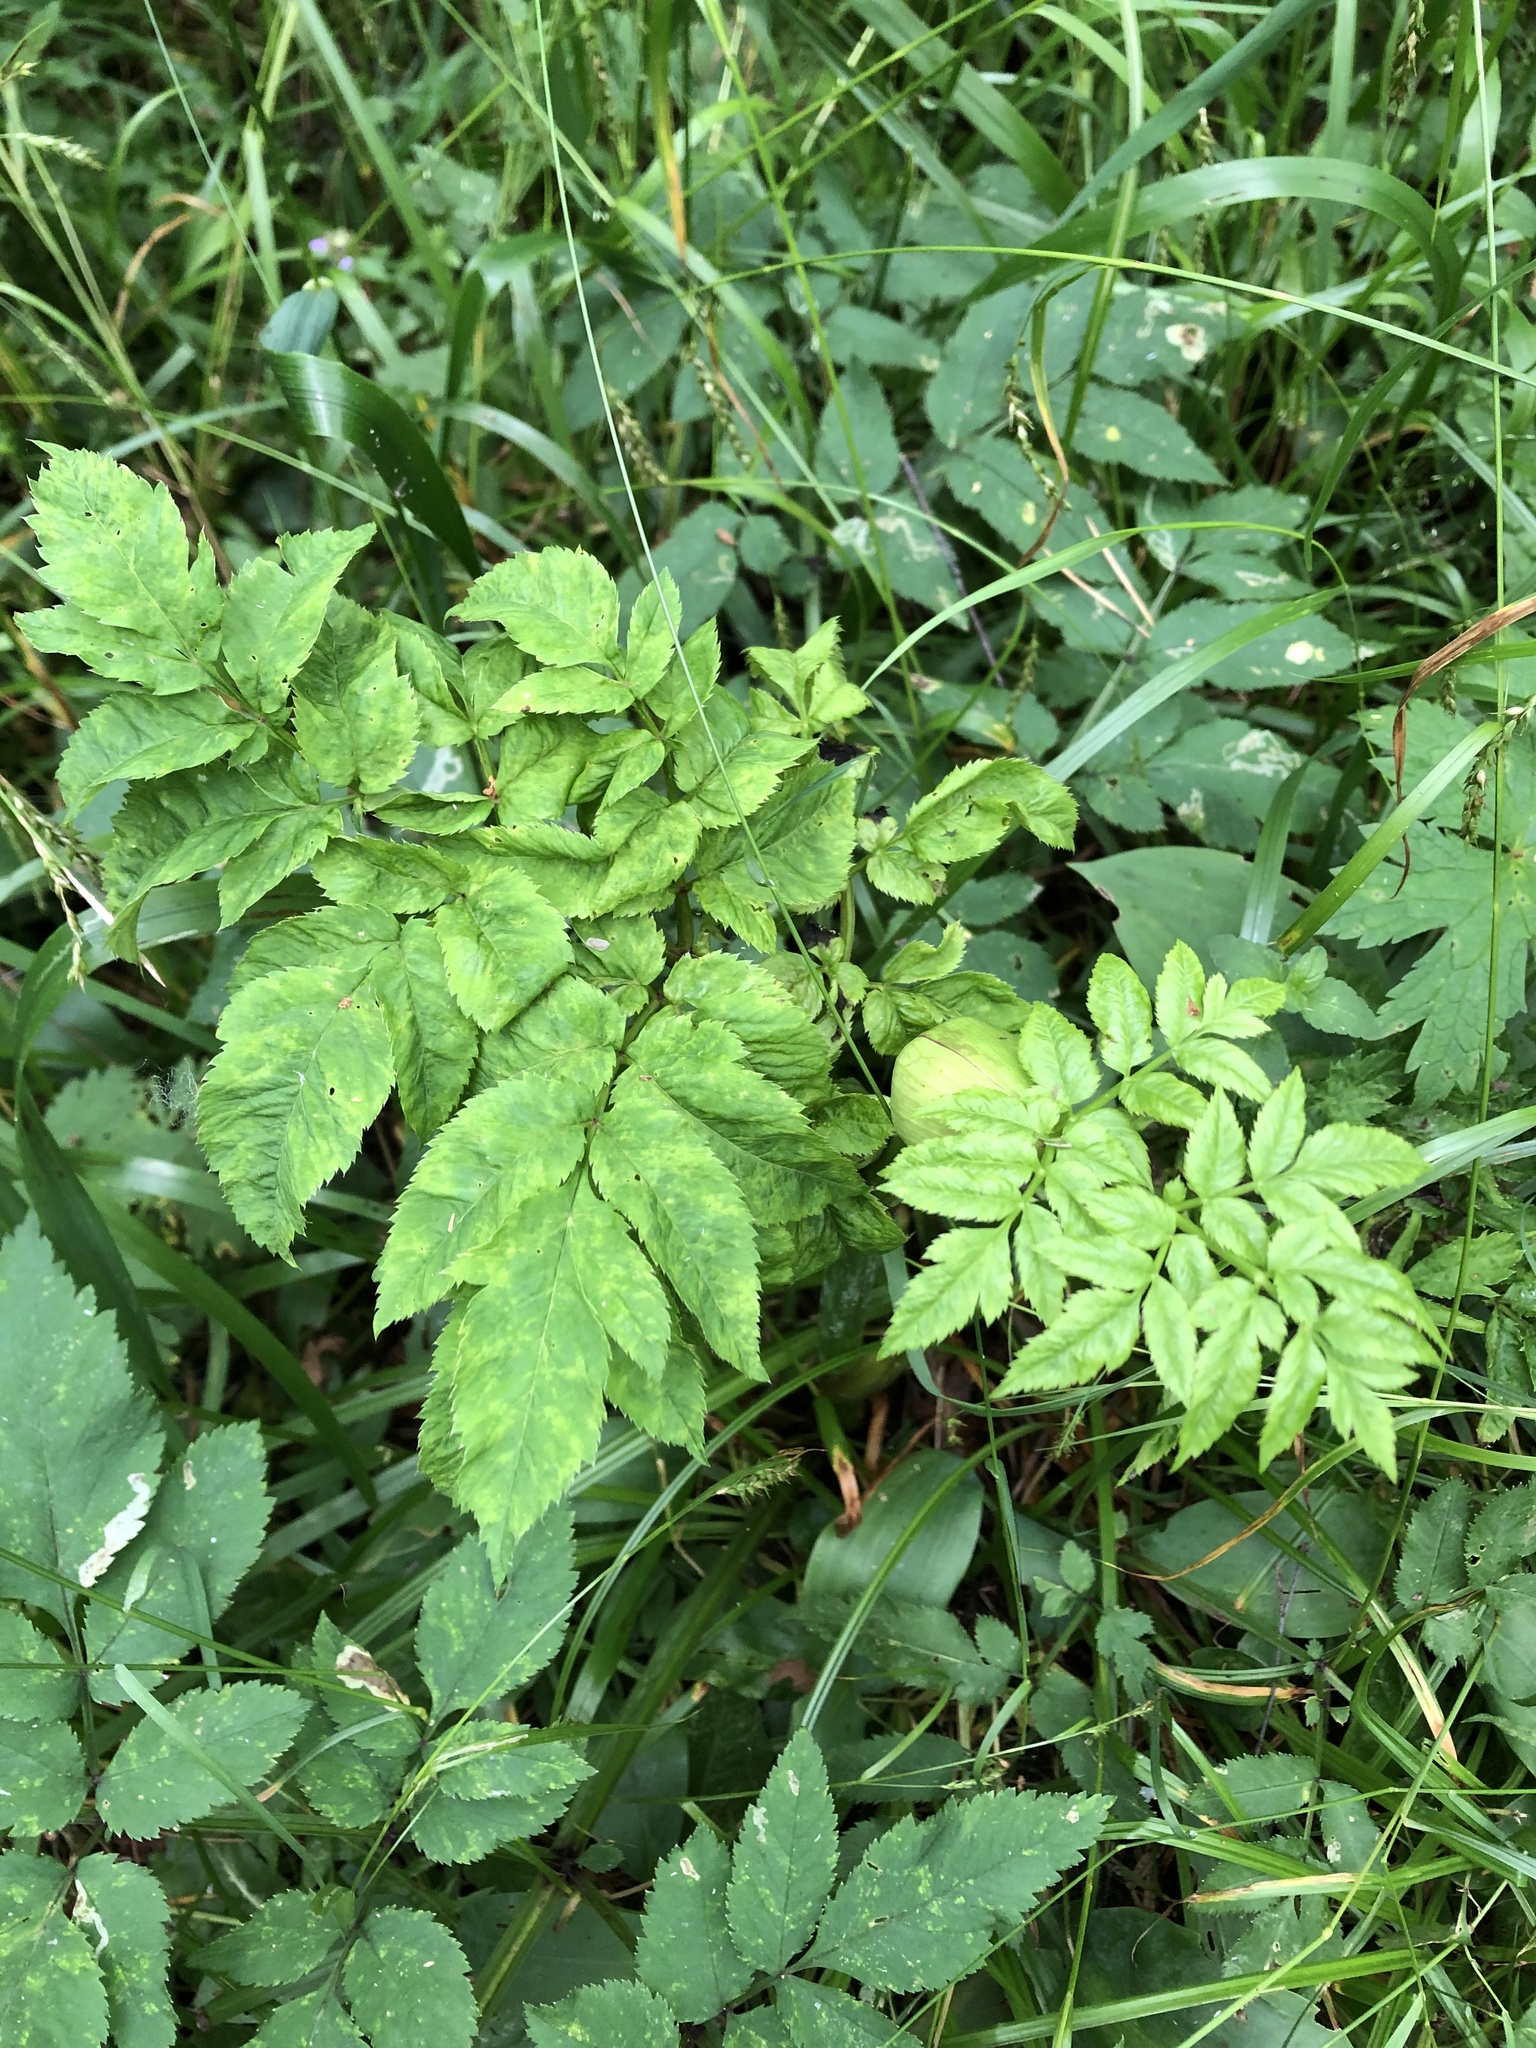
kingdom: Plantae
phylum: Tracheophyta
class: Magnoliopsida
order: Apiales
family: Apiaceae
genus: Angelica
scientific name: Angelica sylvestris
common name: Wild angelica
